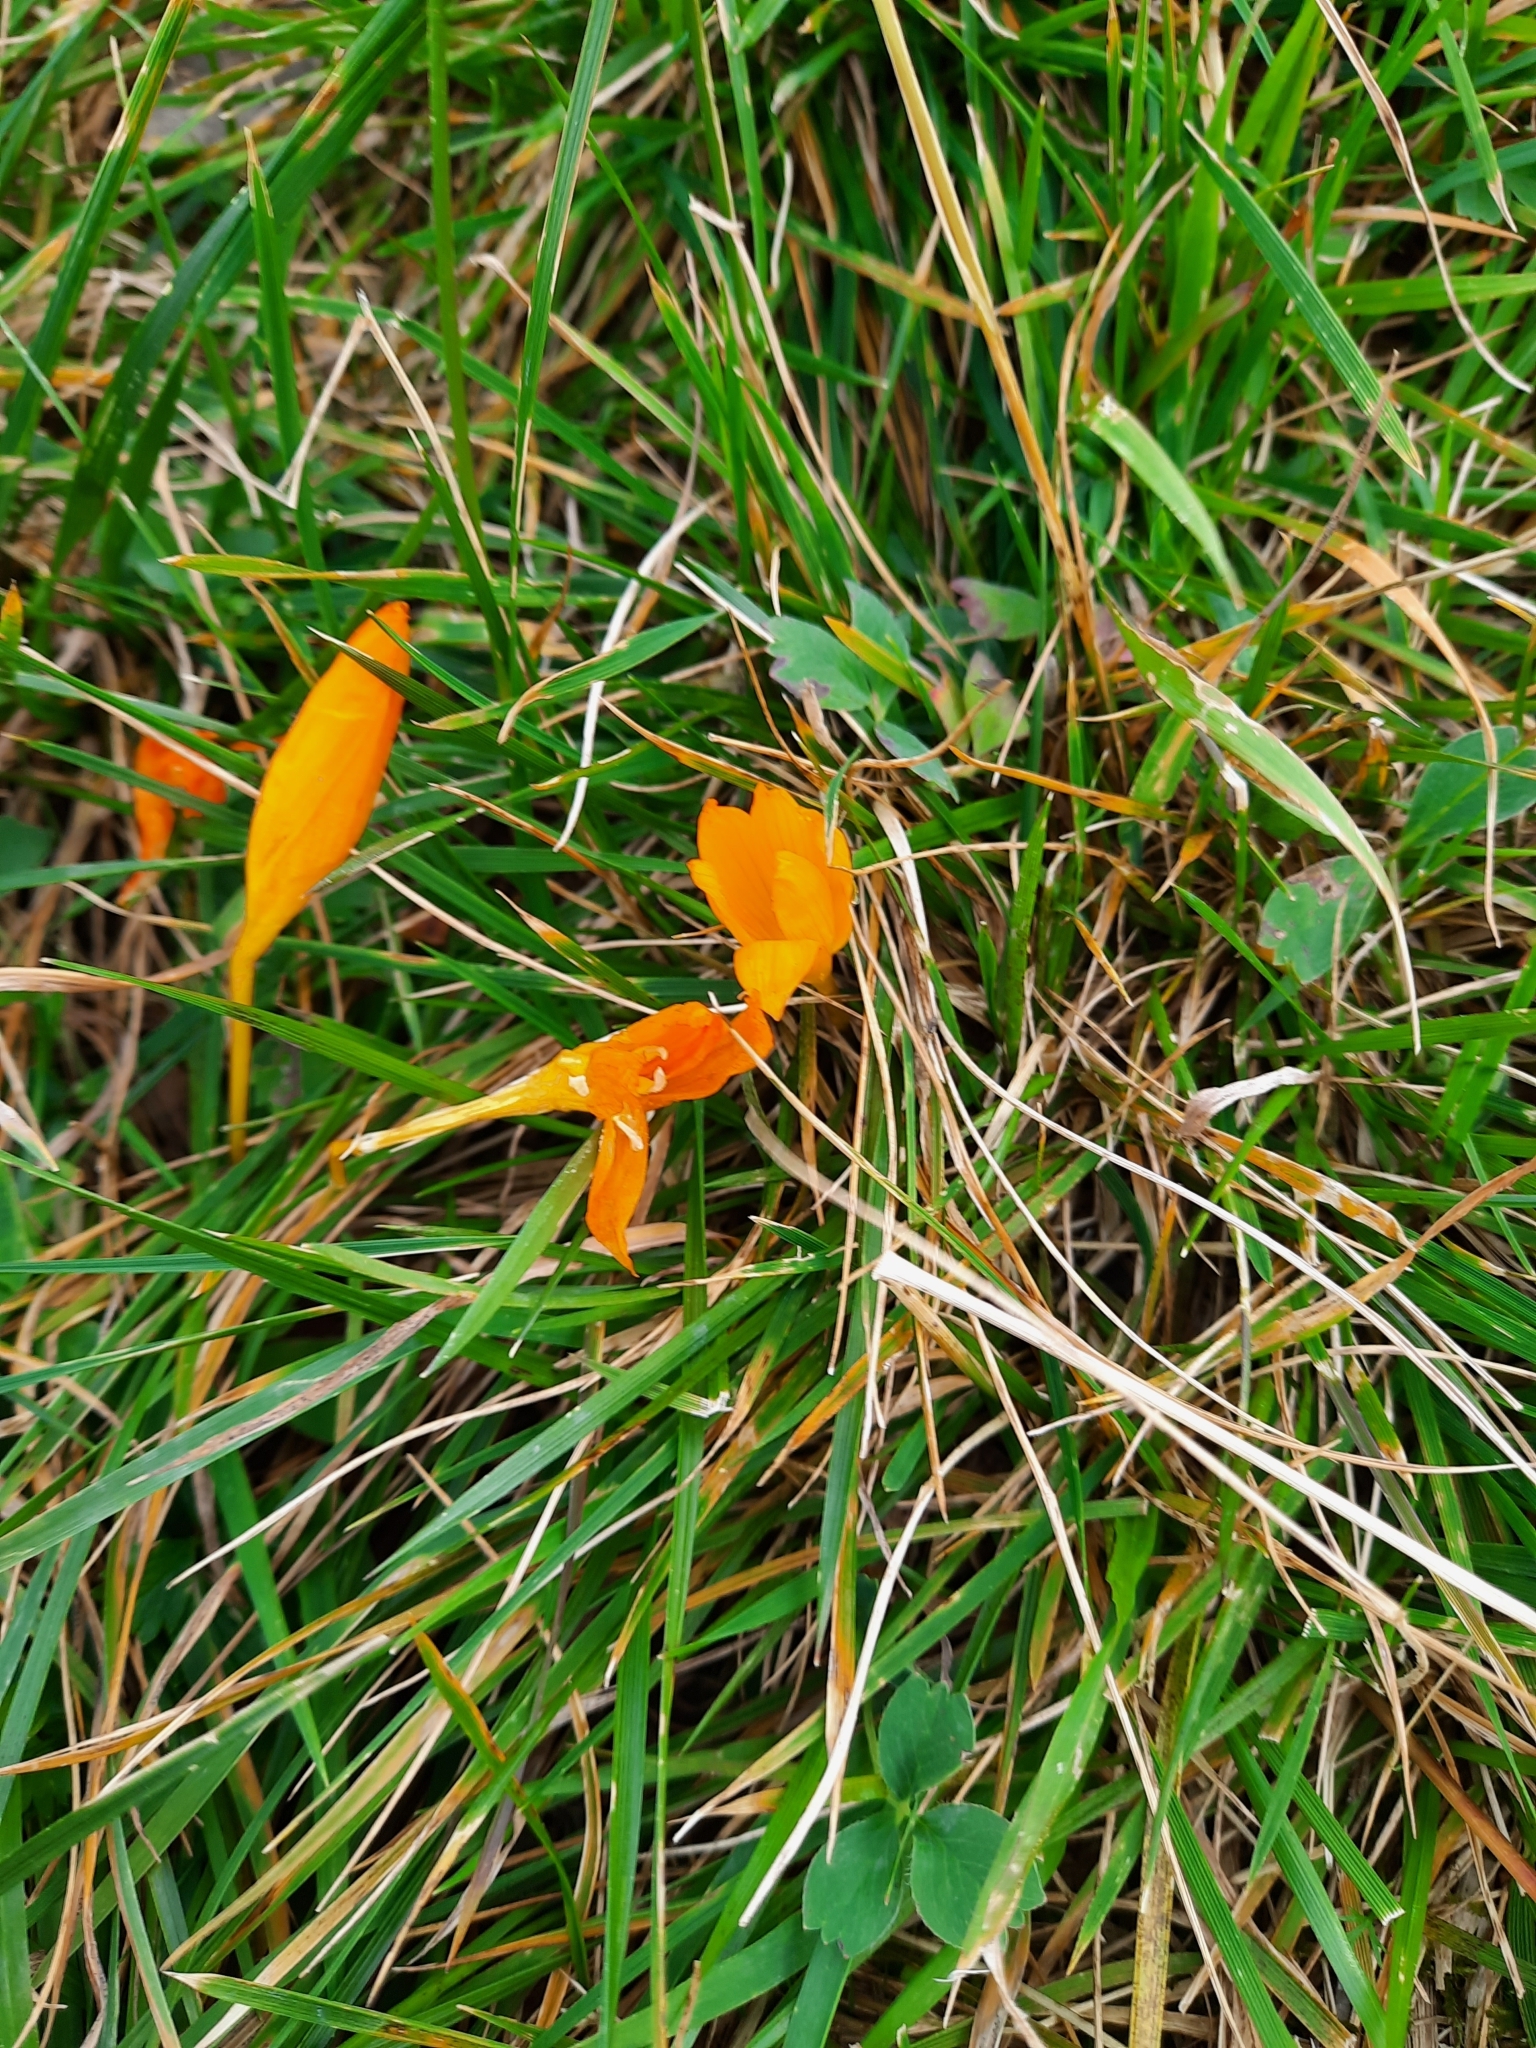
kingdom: Plantae
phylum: Tracheophyta
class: Liliopsida
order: Asparagales
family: Iridaceae
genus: Crocus
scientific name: Crocus scharojanii
